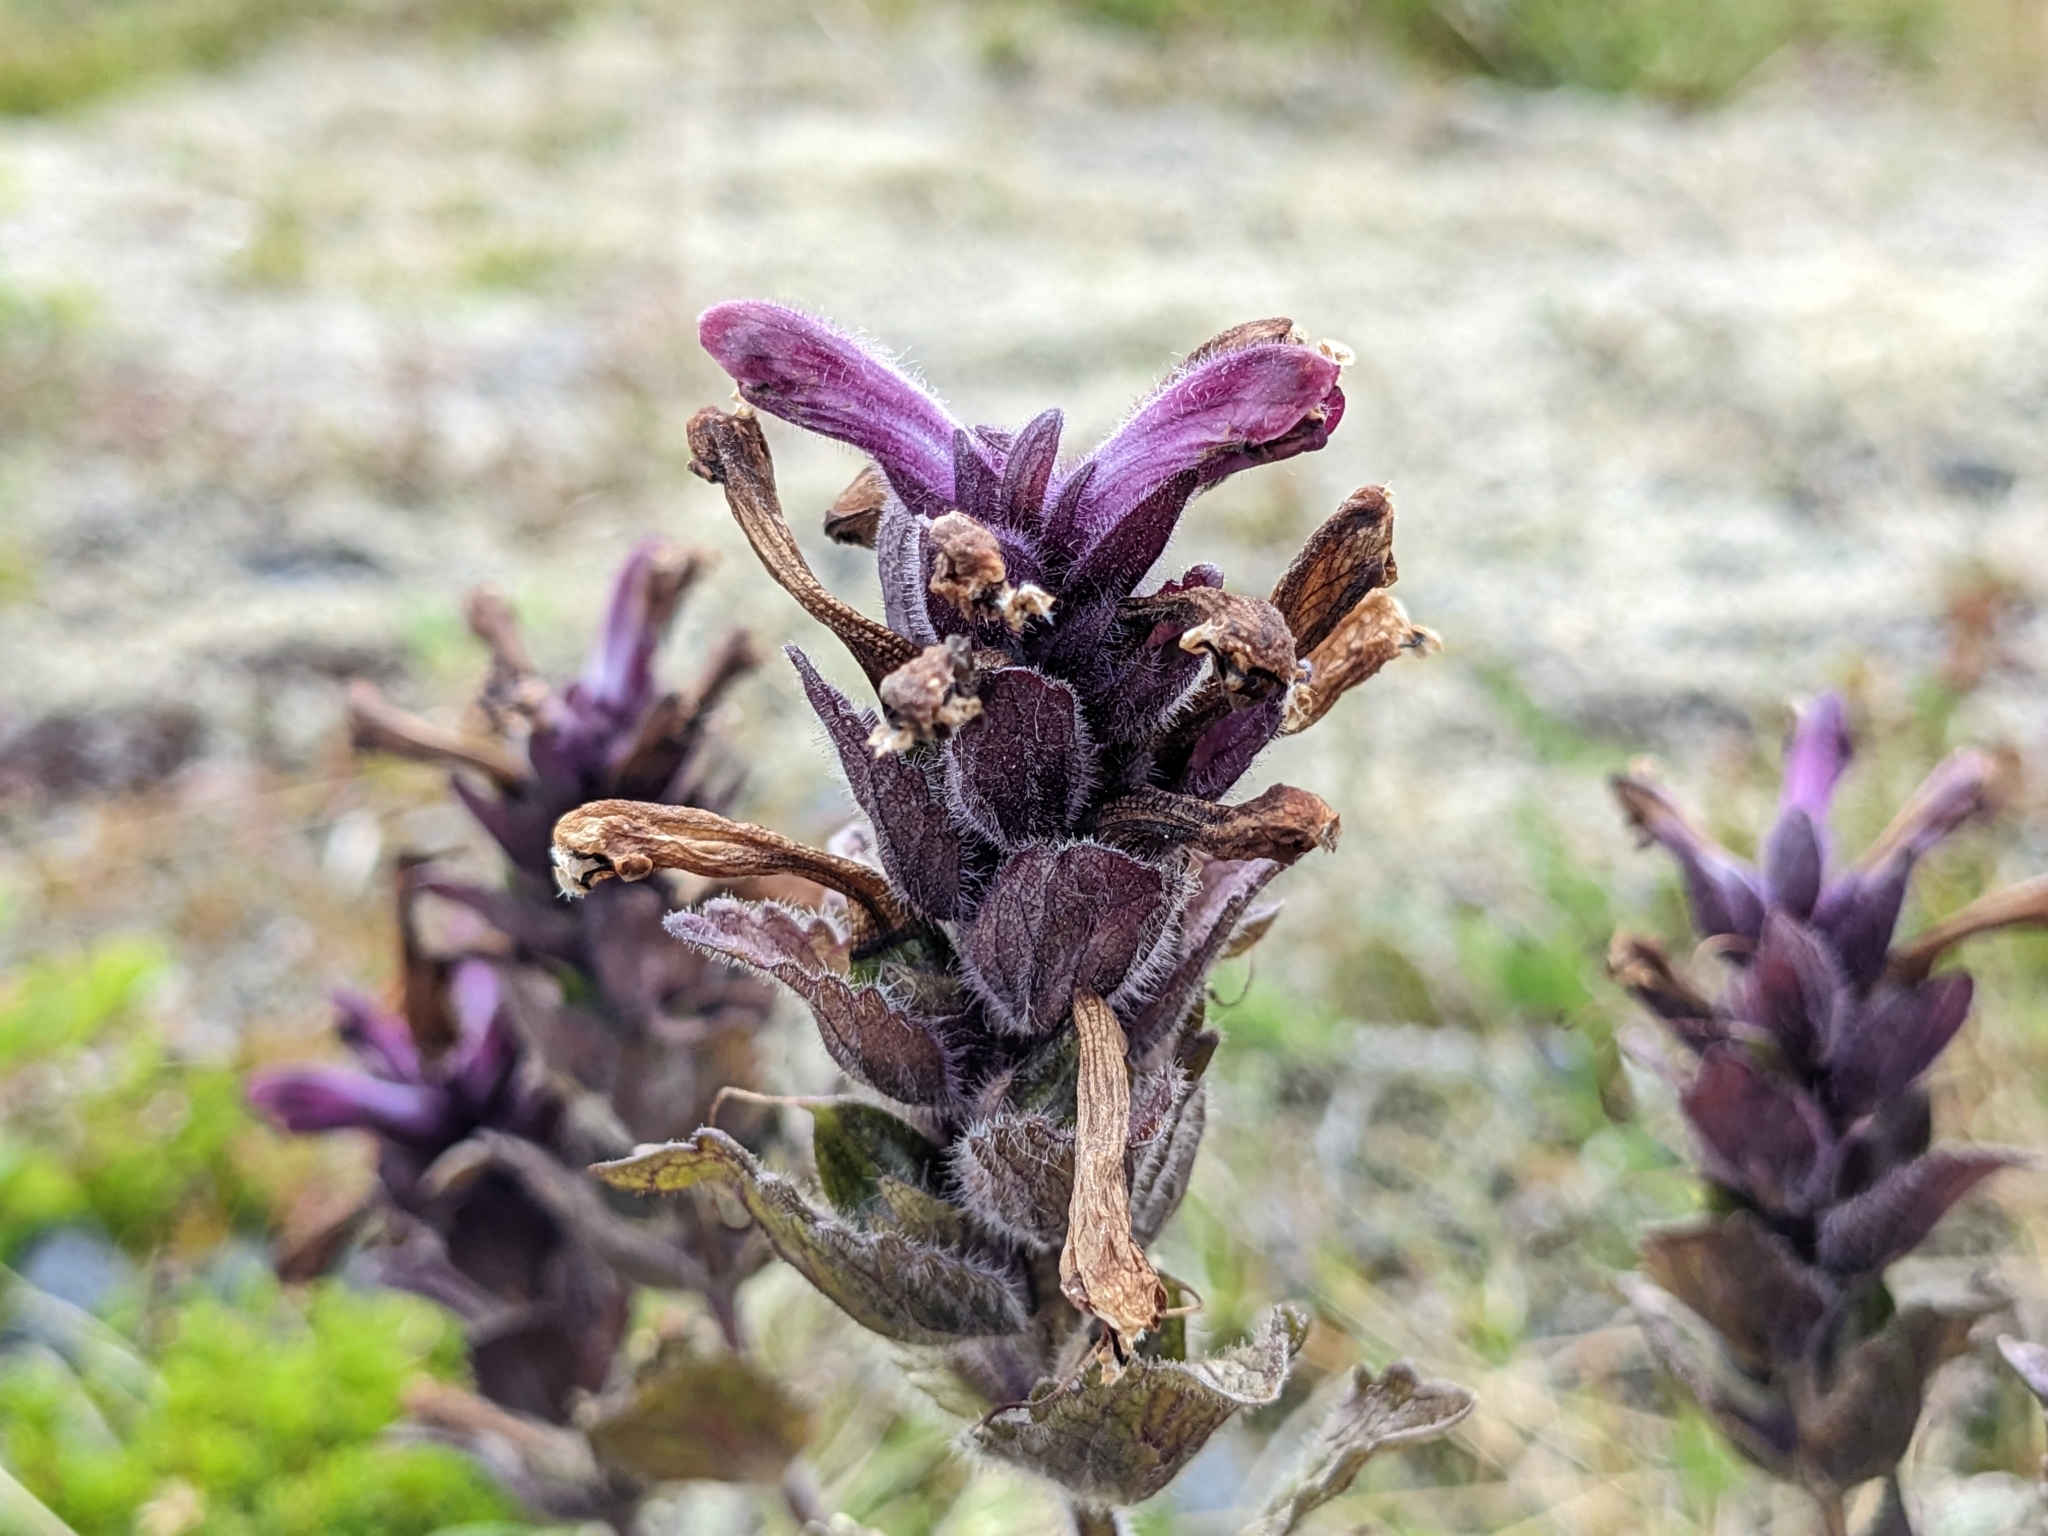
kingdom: Plantae
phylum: Tracheophyta
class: Magnoliopsida
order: Lamiales
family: Orobanchaceae
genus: Bartsia
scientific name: Bartsia alpina
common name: Alpine bartsia
